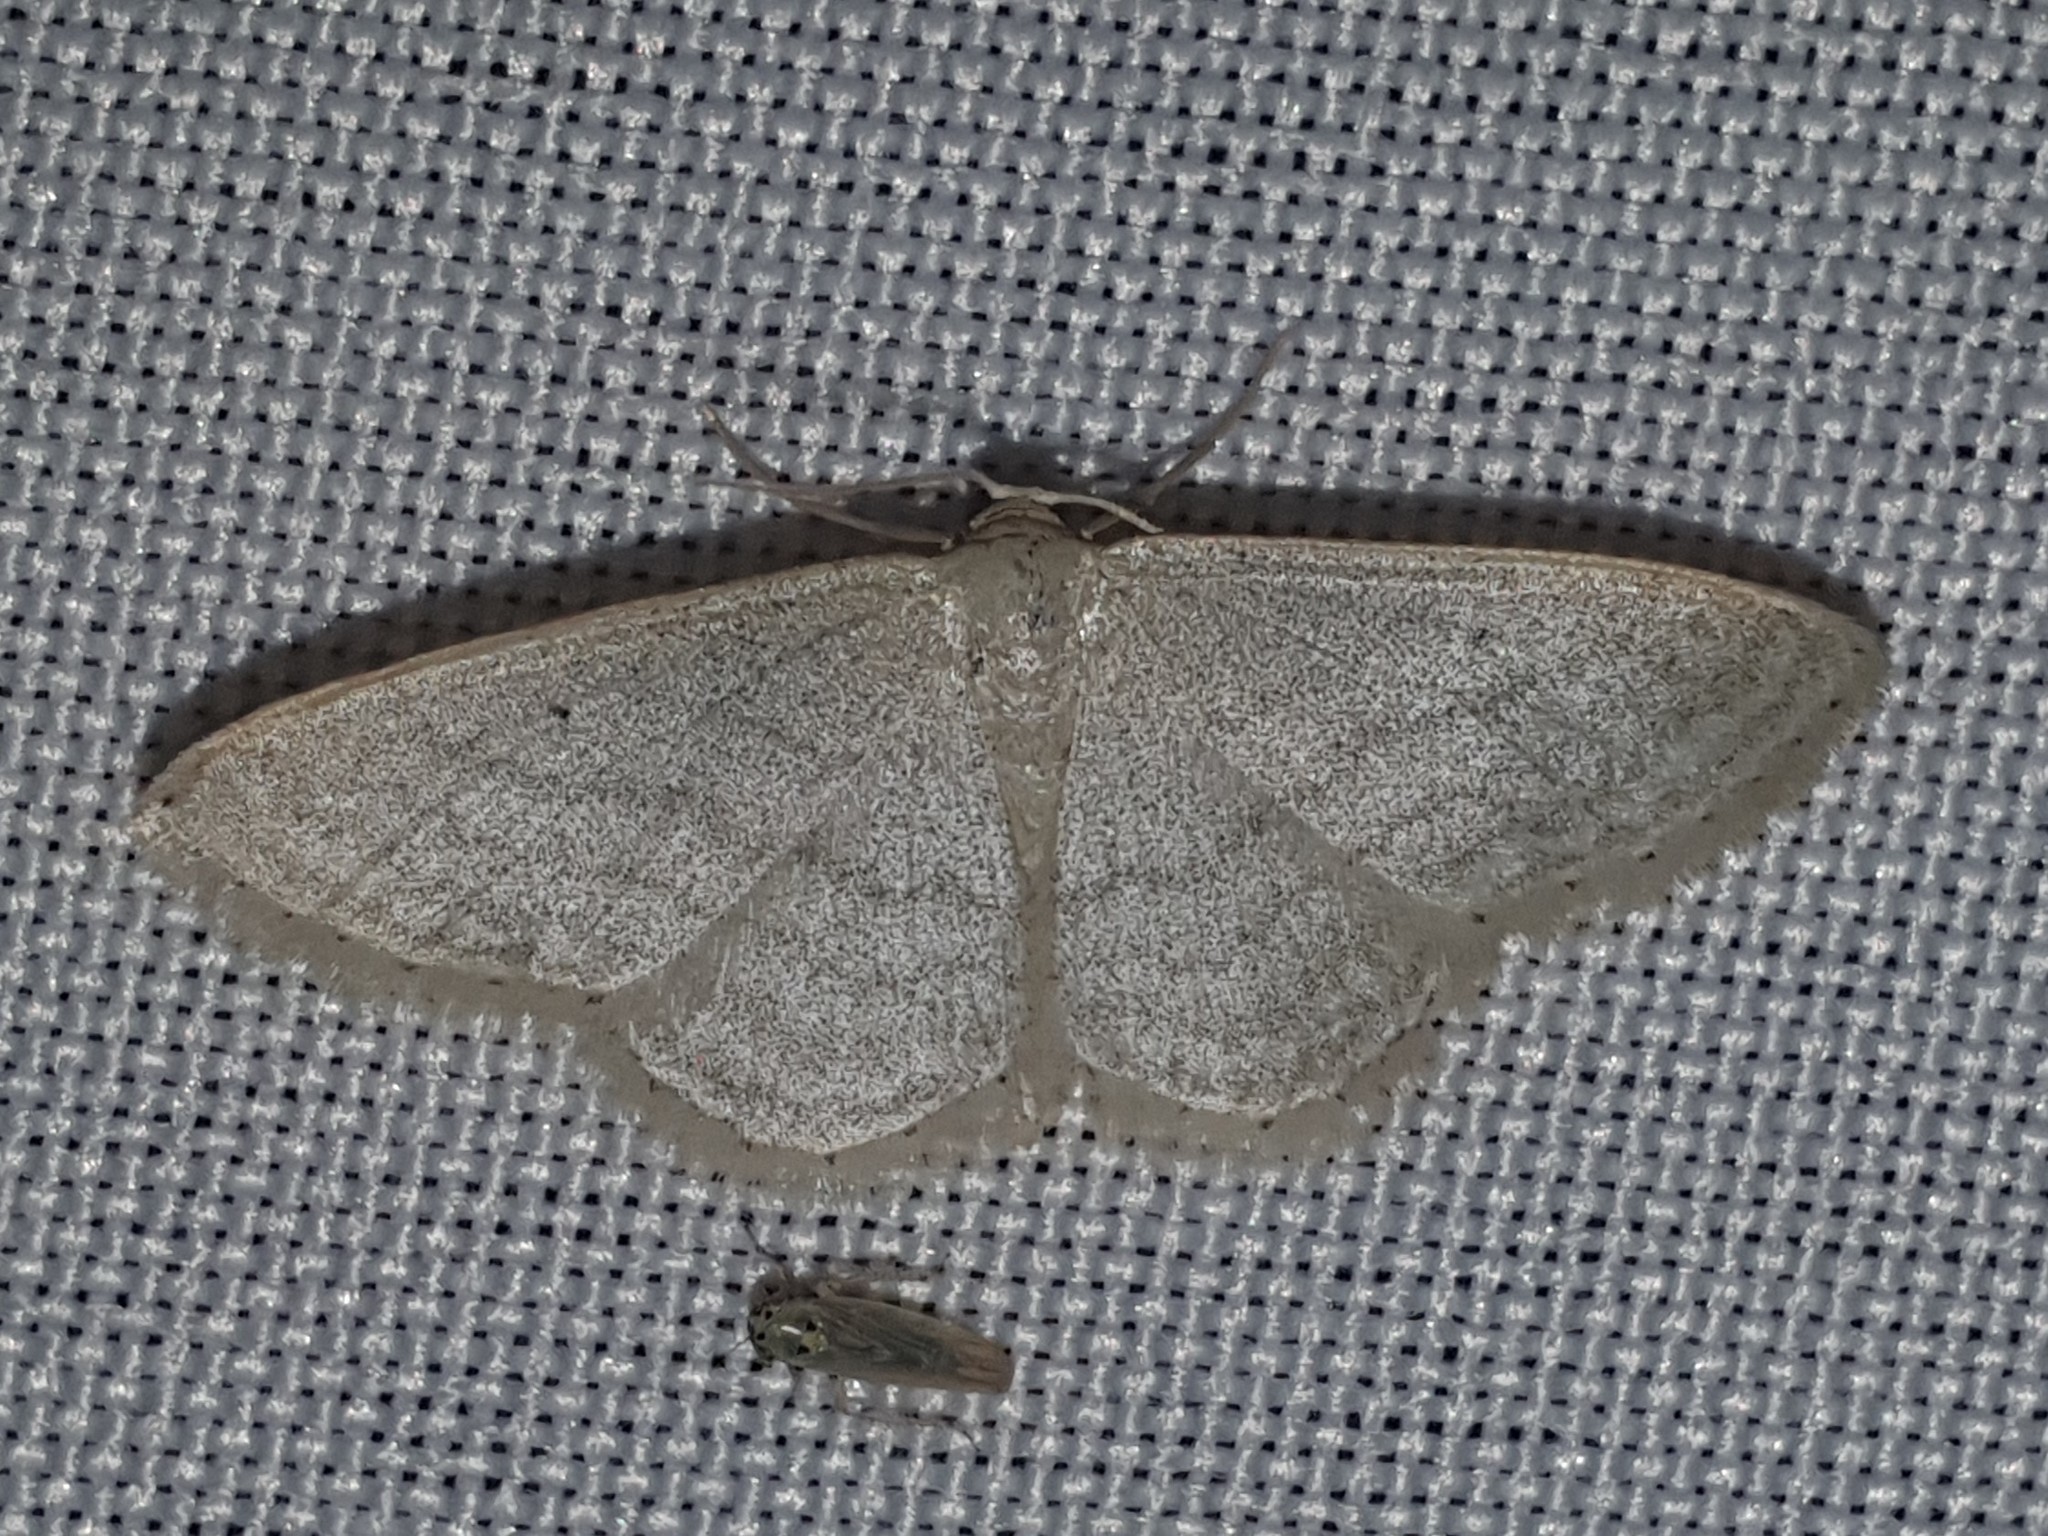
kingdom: Animalia
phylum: Arthropoda
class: Insecta
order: Lepidoptera
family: Geometridae
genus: Idaea
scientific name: Idaea subsericeata
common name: Satin wave
